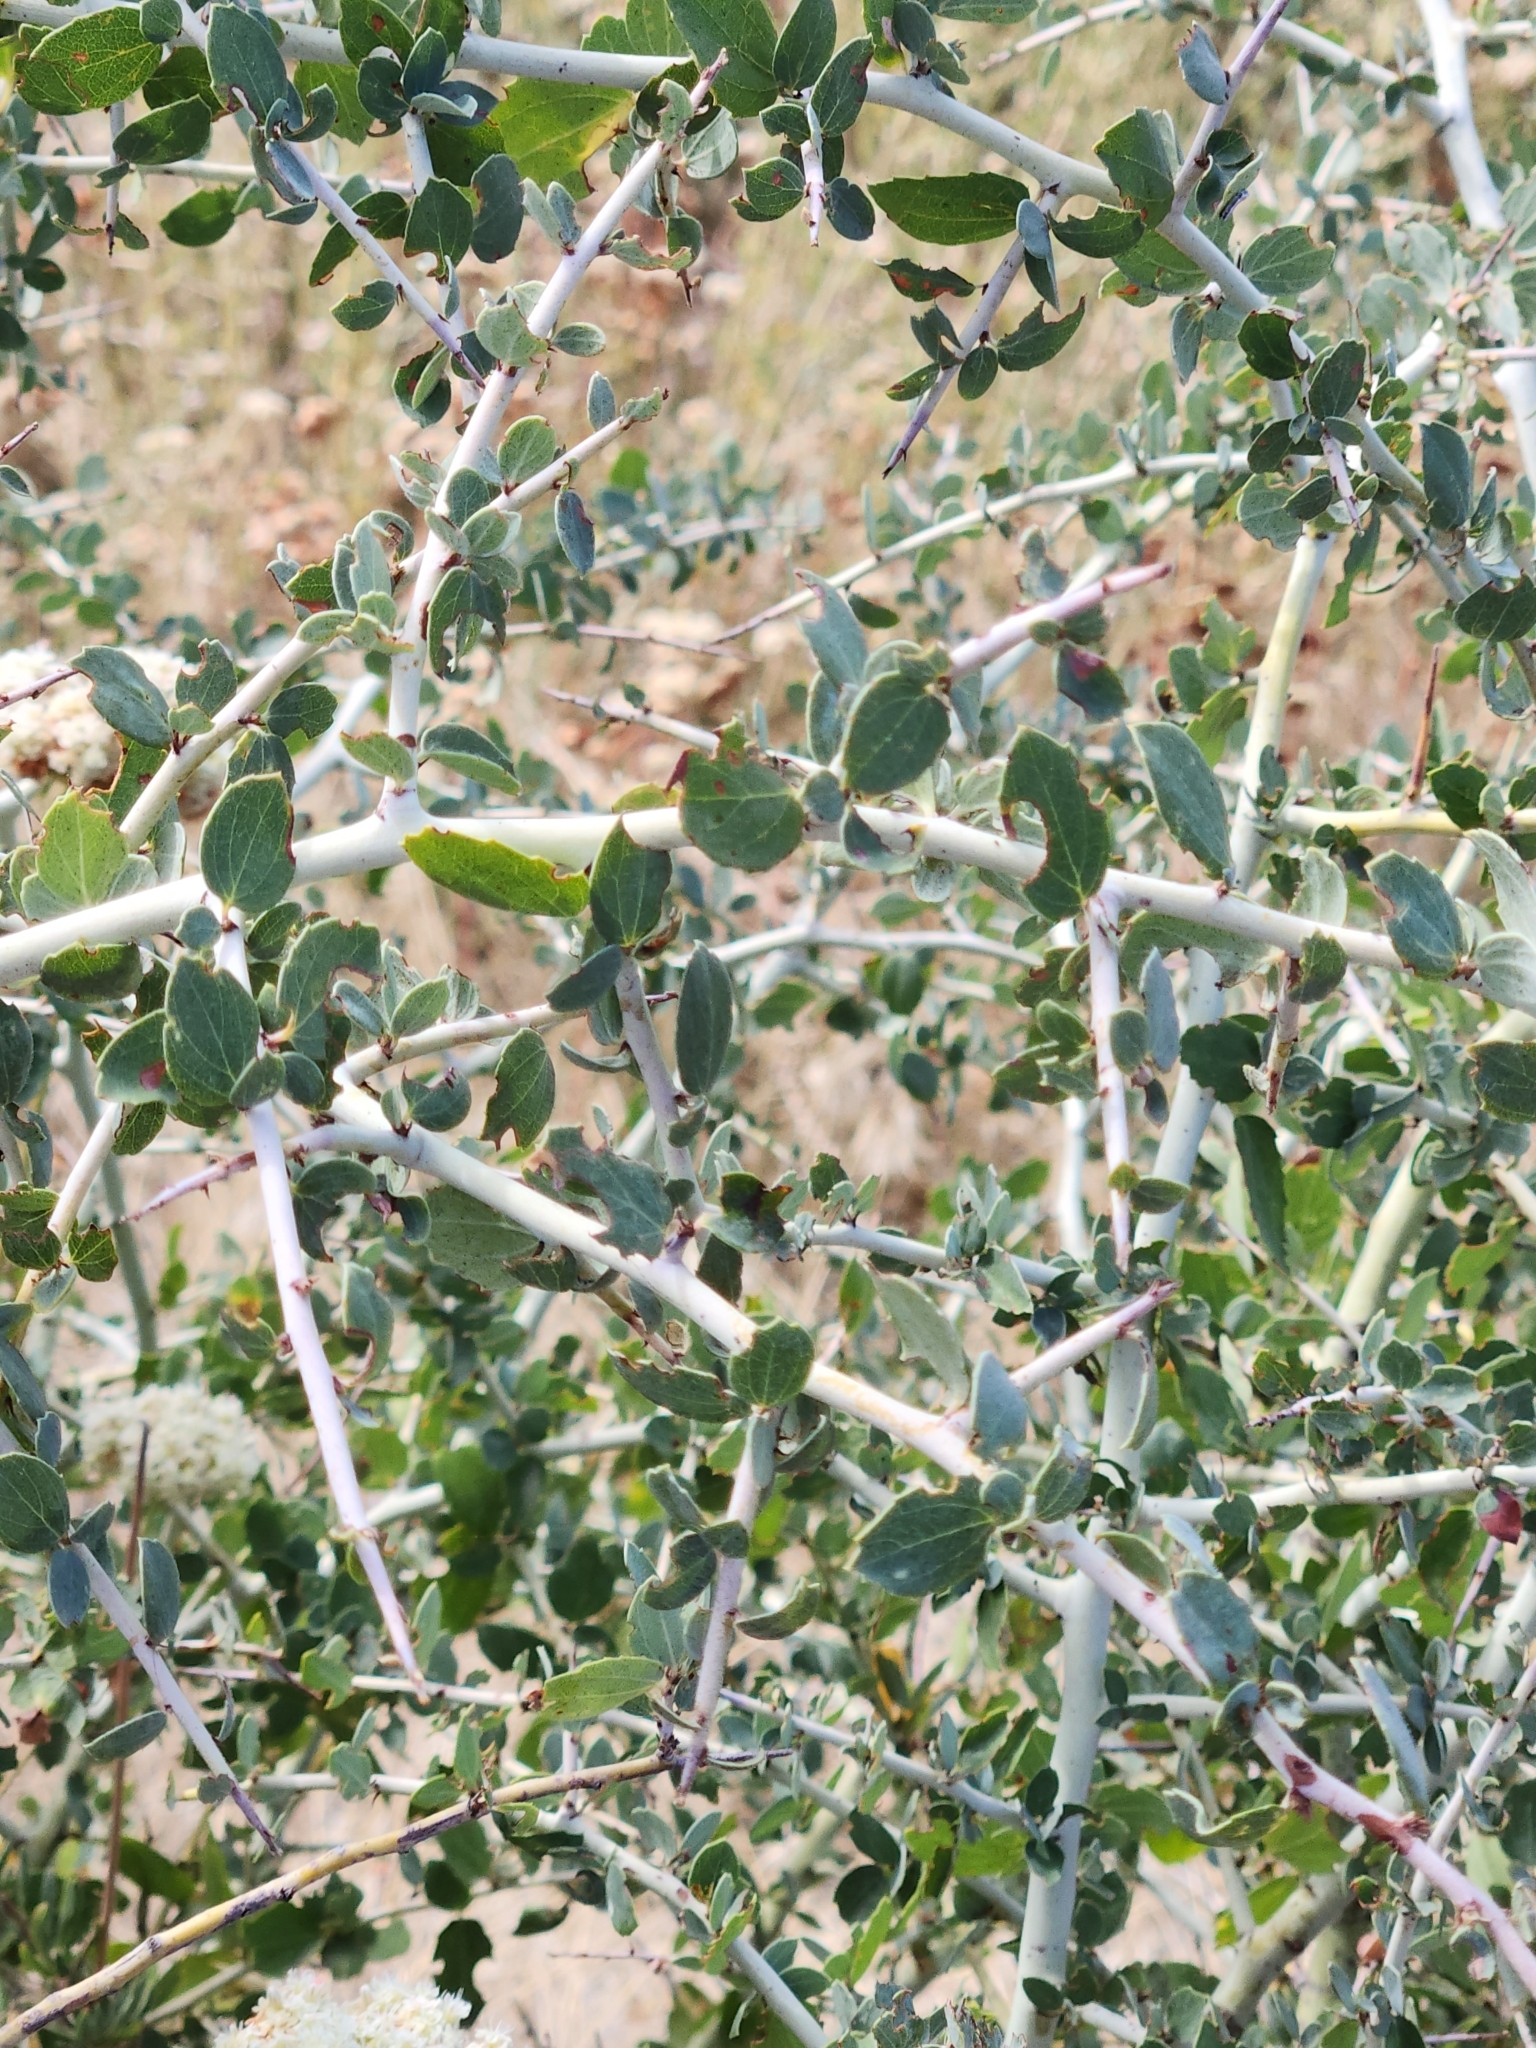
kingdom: Plantae
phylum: Tracheophyta
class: Magnoliopsida
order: Rosales
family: Rhamnaceae
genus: Ceanothus
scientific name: Ceanothus leucodermis
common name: Chaparral whitethorn
